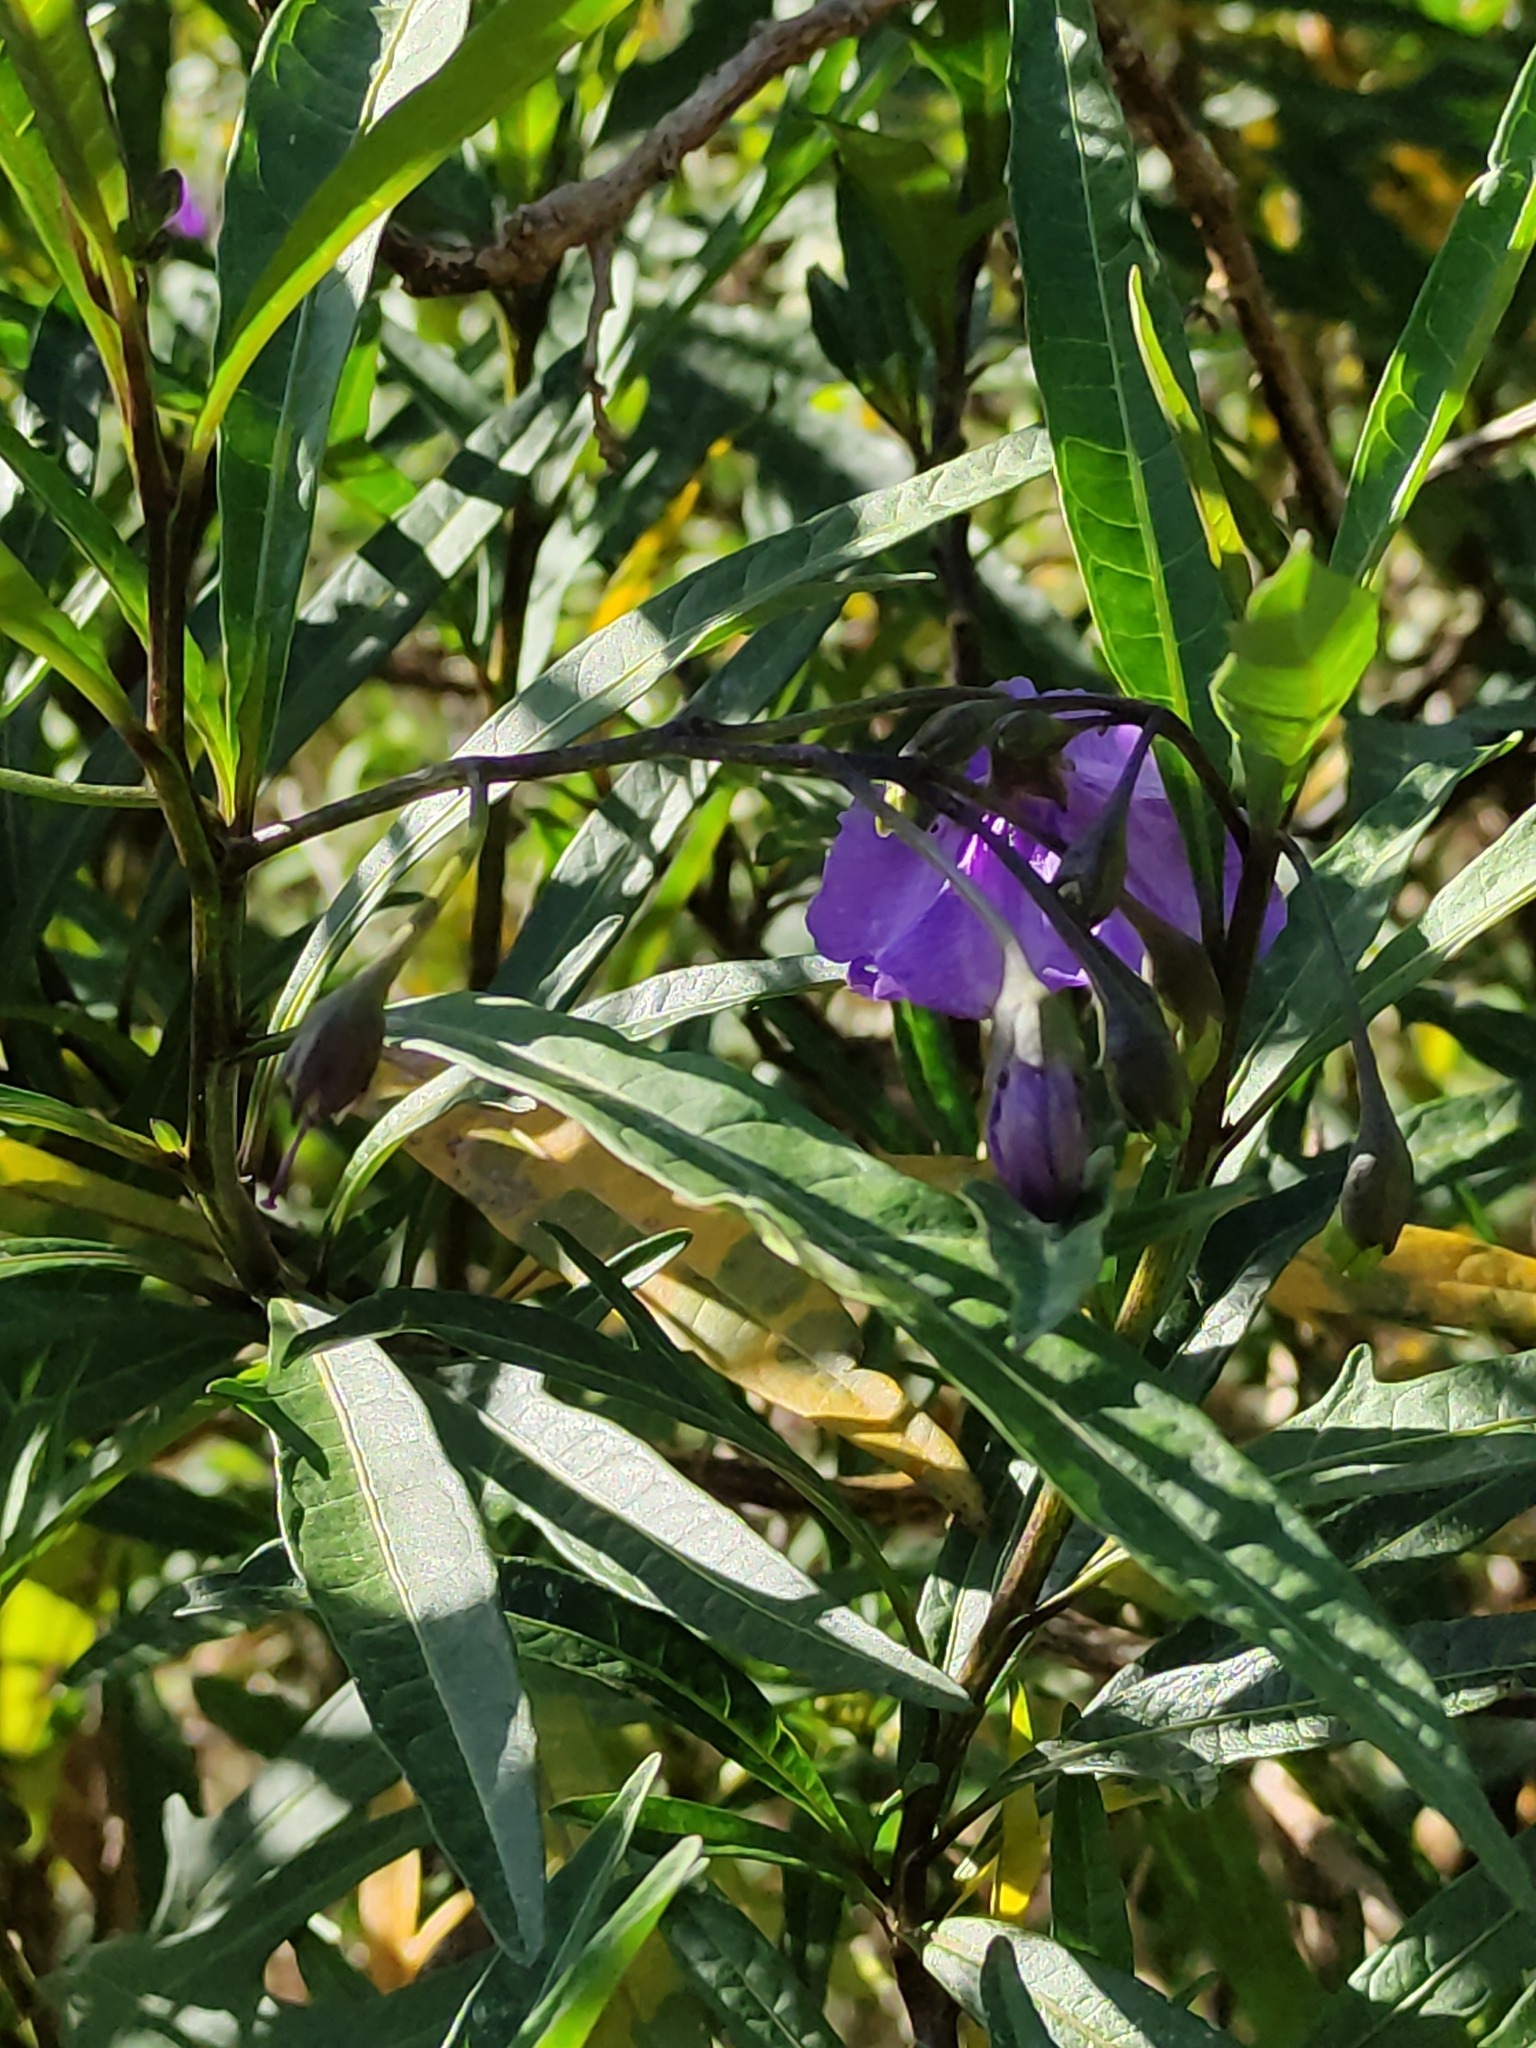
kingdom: Plantae
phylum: Tracheophyta
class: Magnoliopsida
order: Solanales
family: Solanaceae
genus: Solanum
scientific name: Solanum laciniatum
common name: Kangaroo-apple
